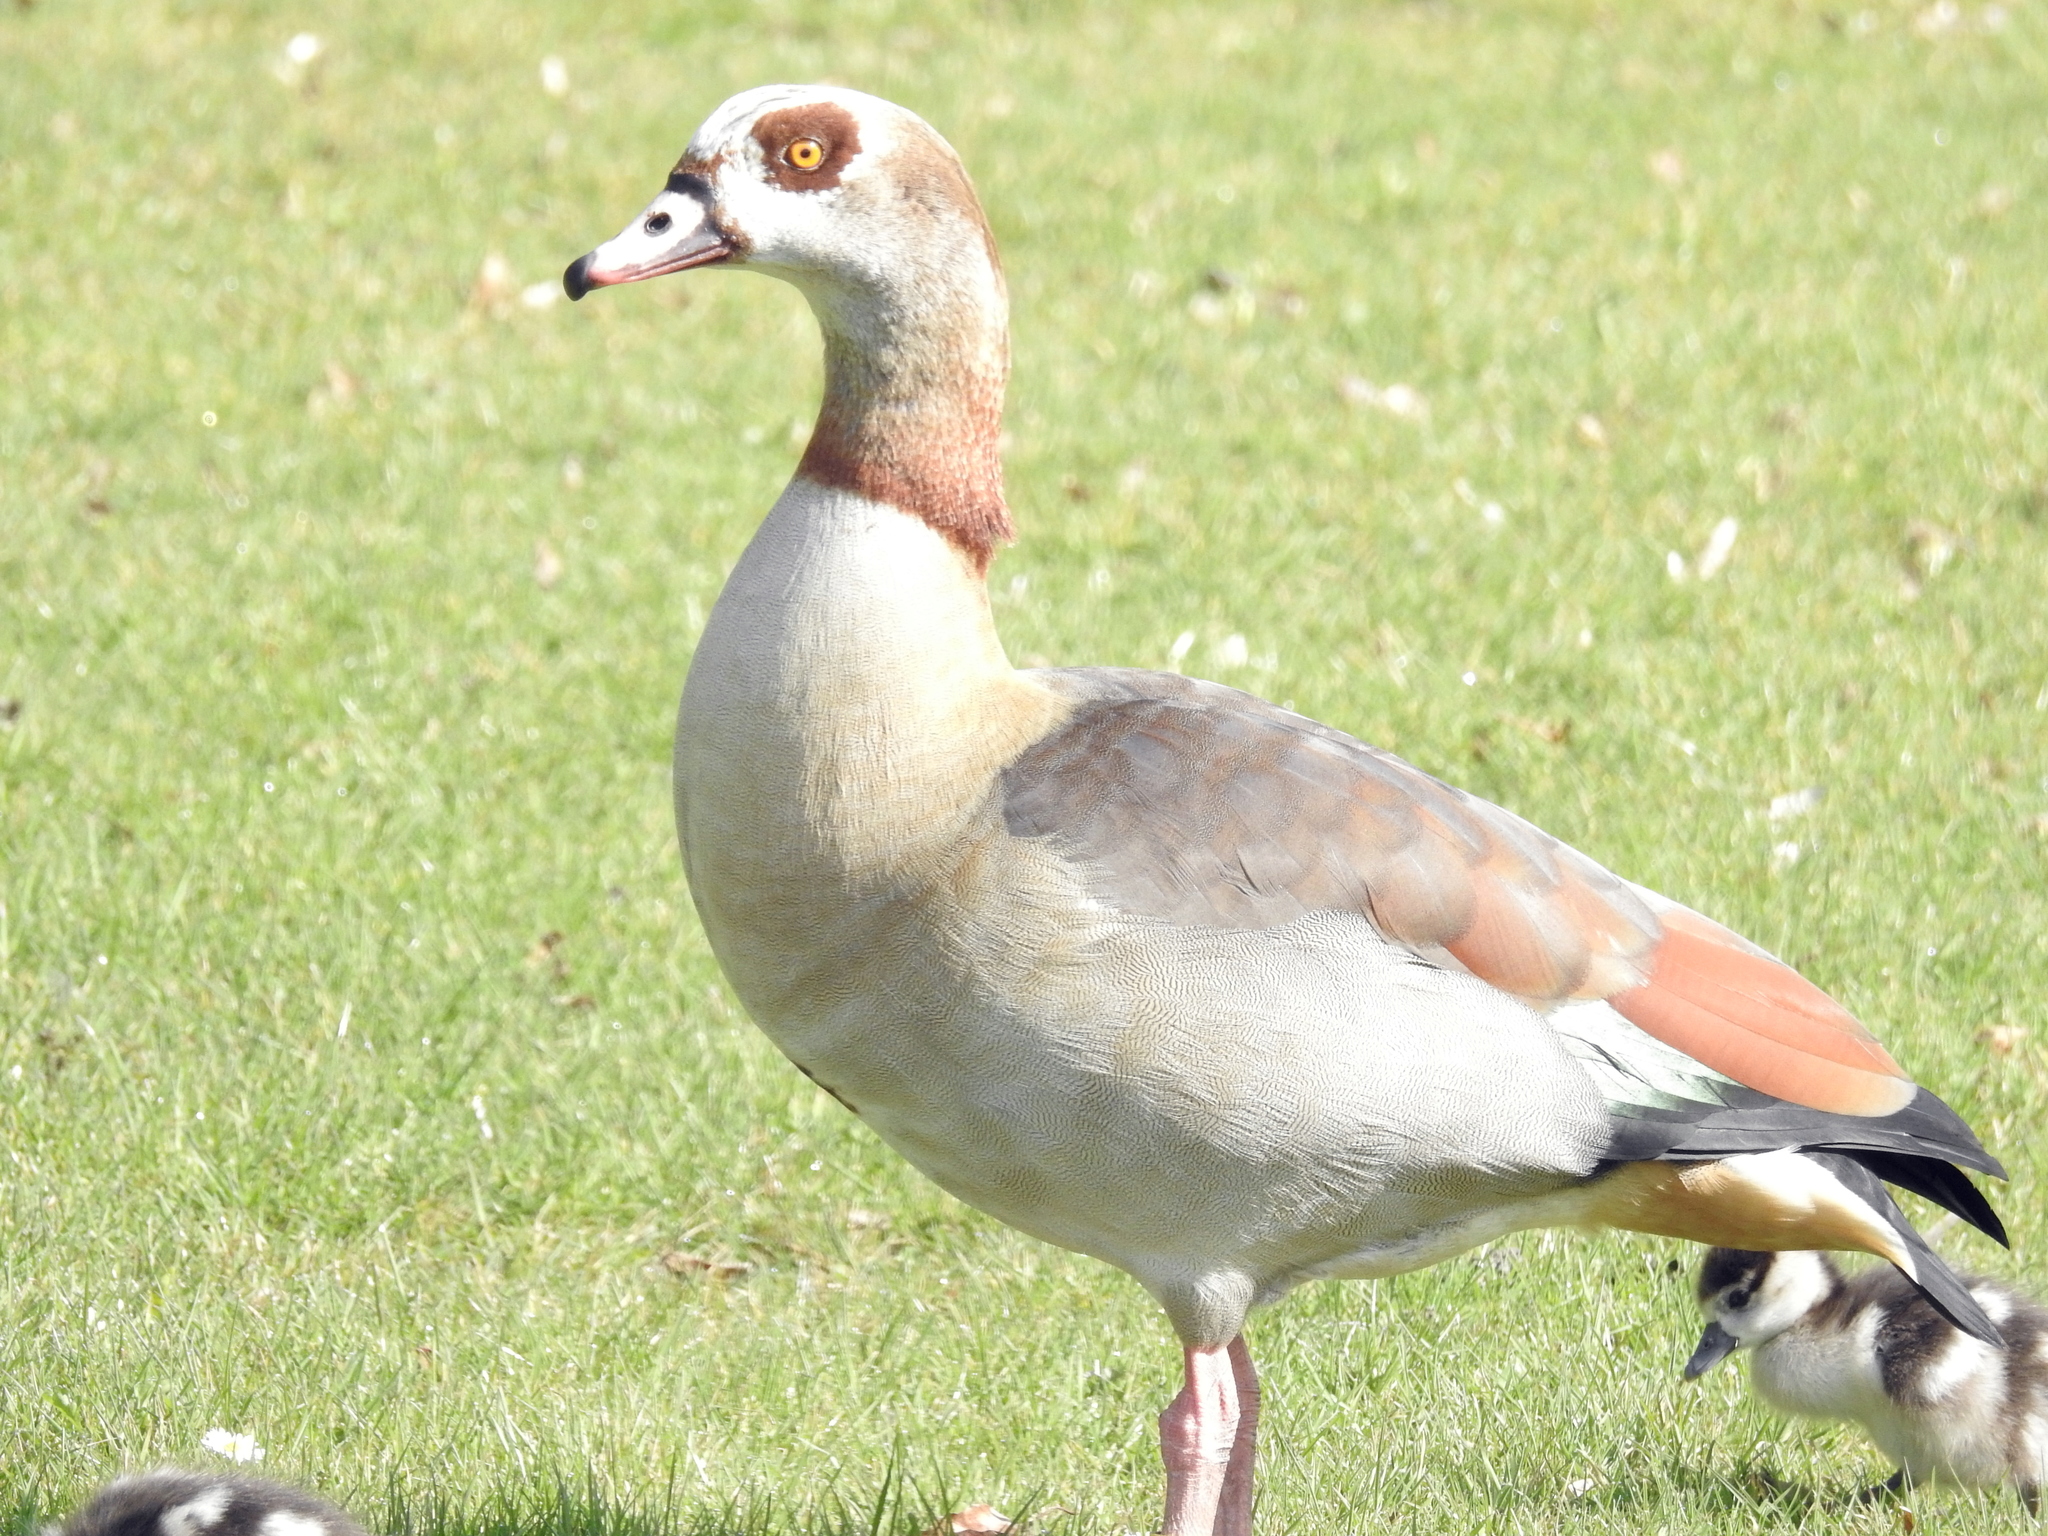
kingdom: Animalia
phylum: Chordata
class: Aves
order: Anseriformes
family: Anatidae
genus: Alopochen
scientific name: Alopochen aegyptiaca
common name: Egyptian goose
